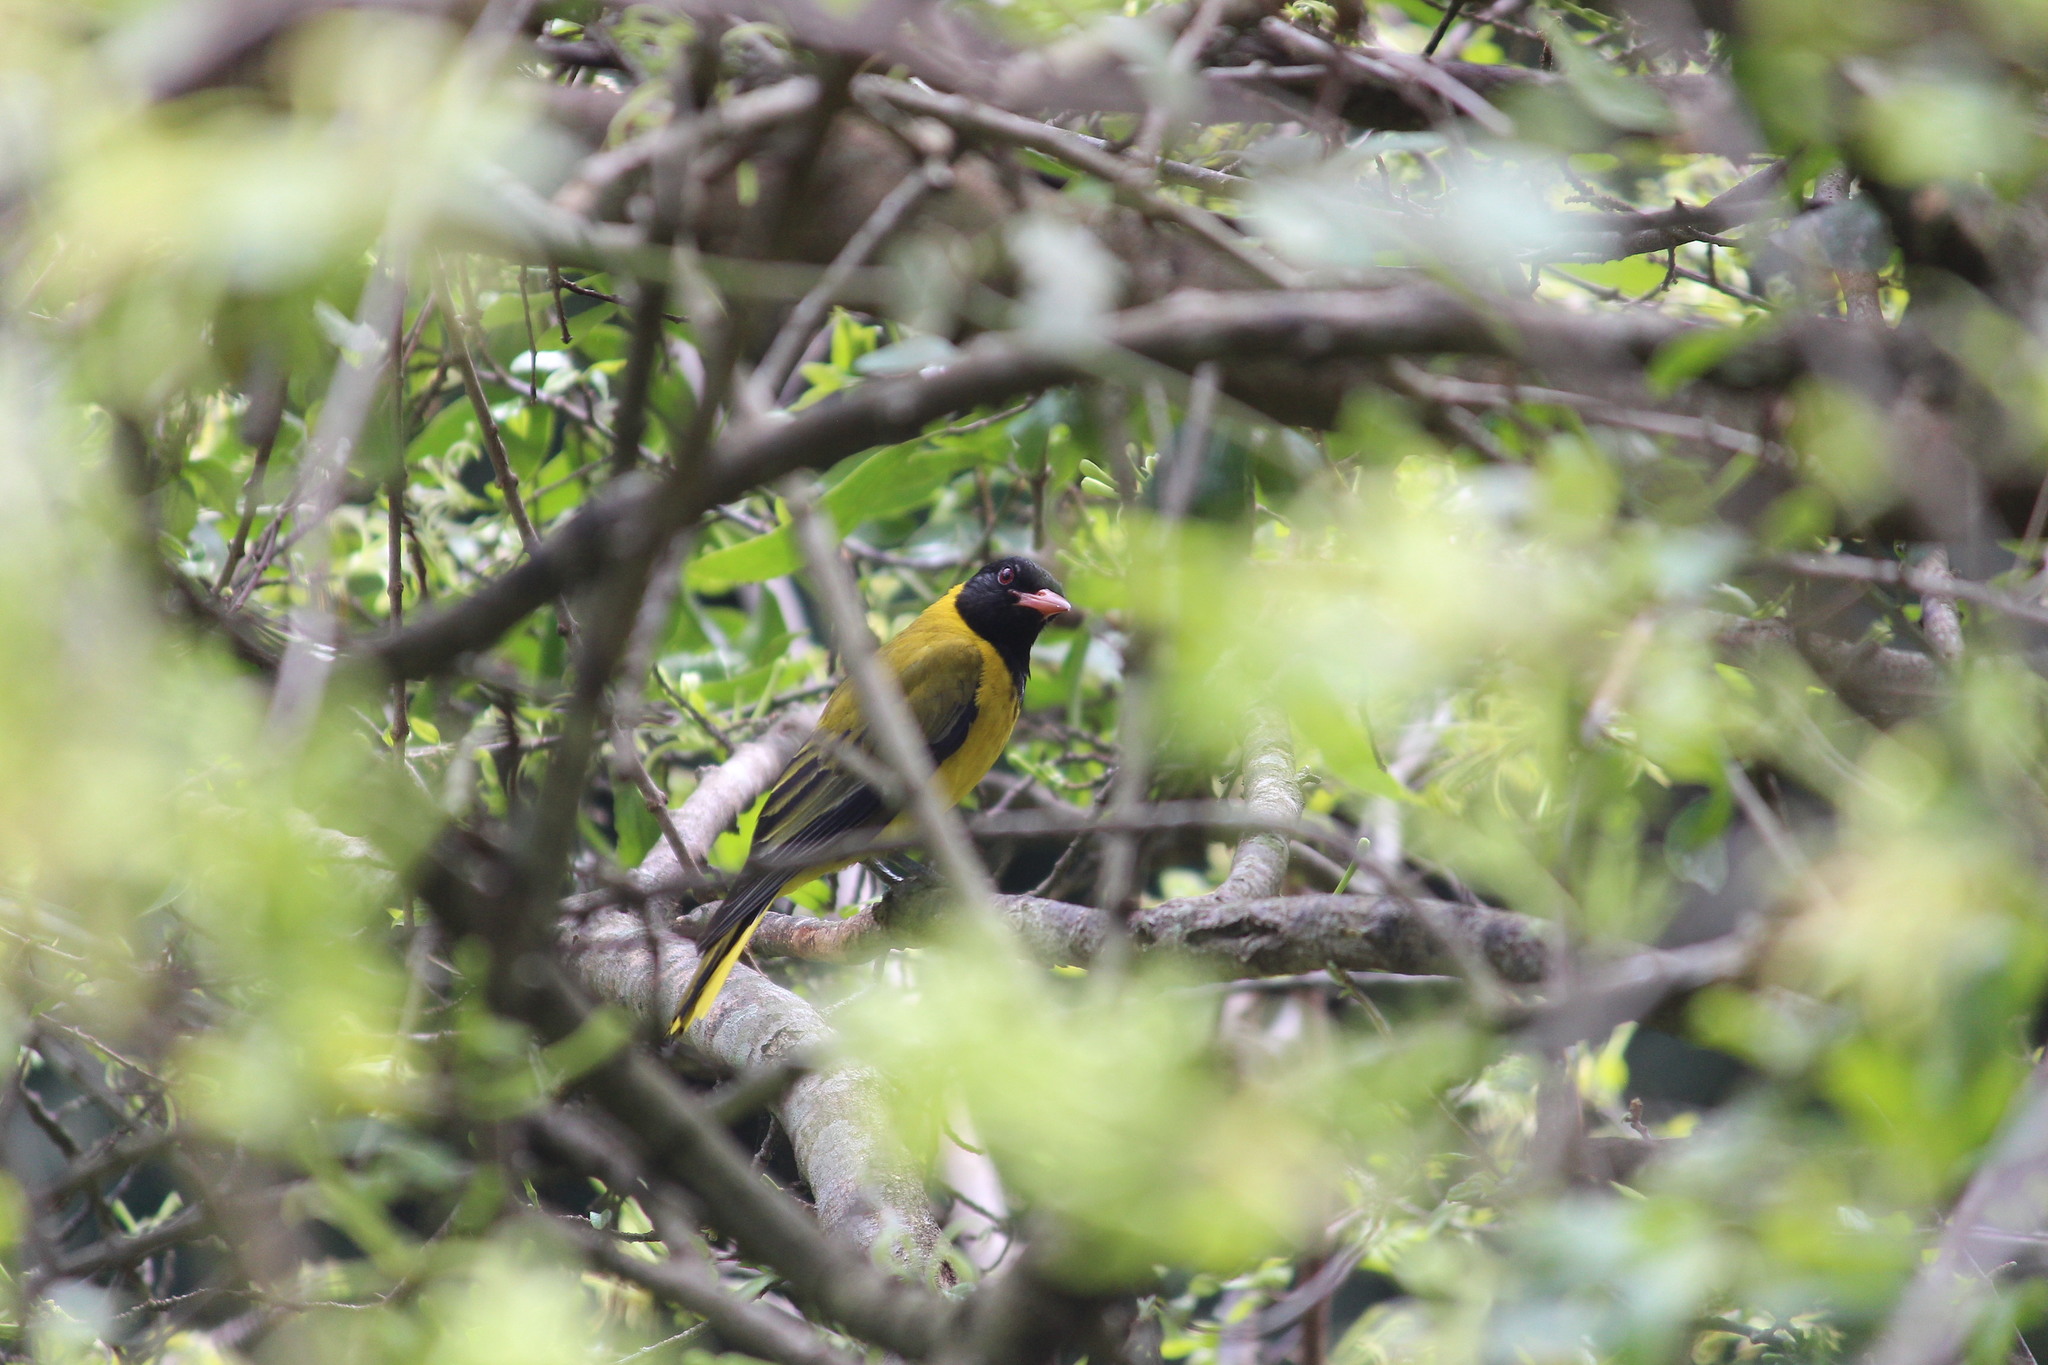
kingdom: Animalia
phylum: Chordata
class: Aves
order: Passeriformes
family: Oriolidae
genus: Oriolus
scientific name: Oriolus larvatus
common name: Black-headed oriole
